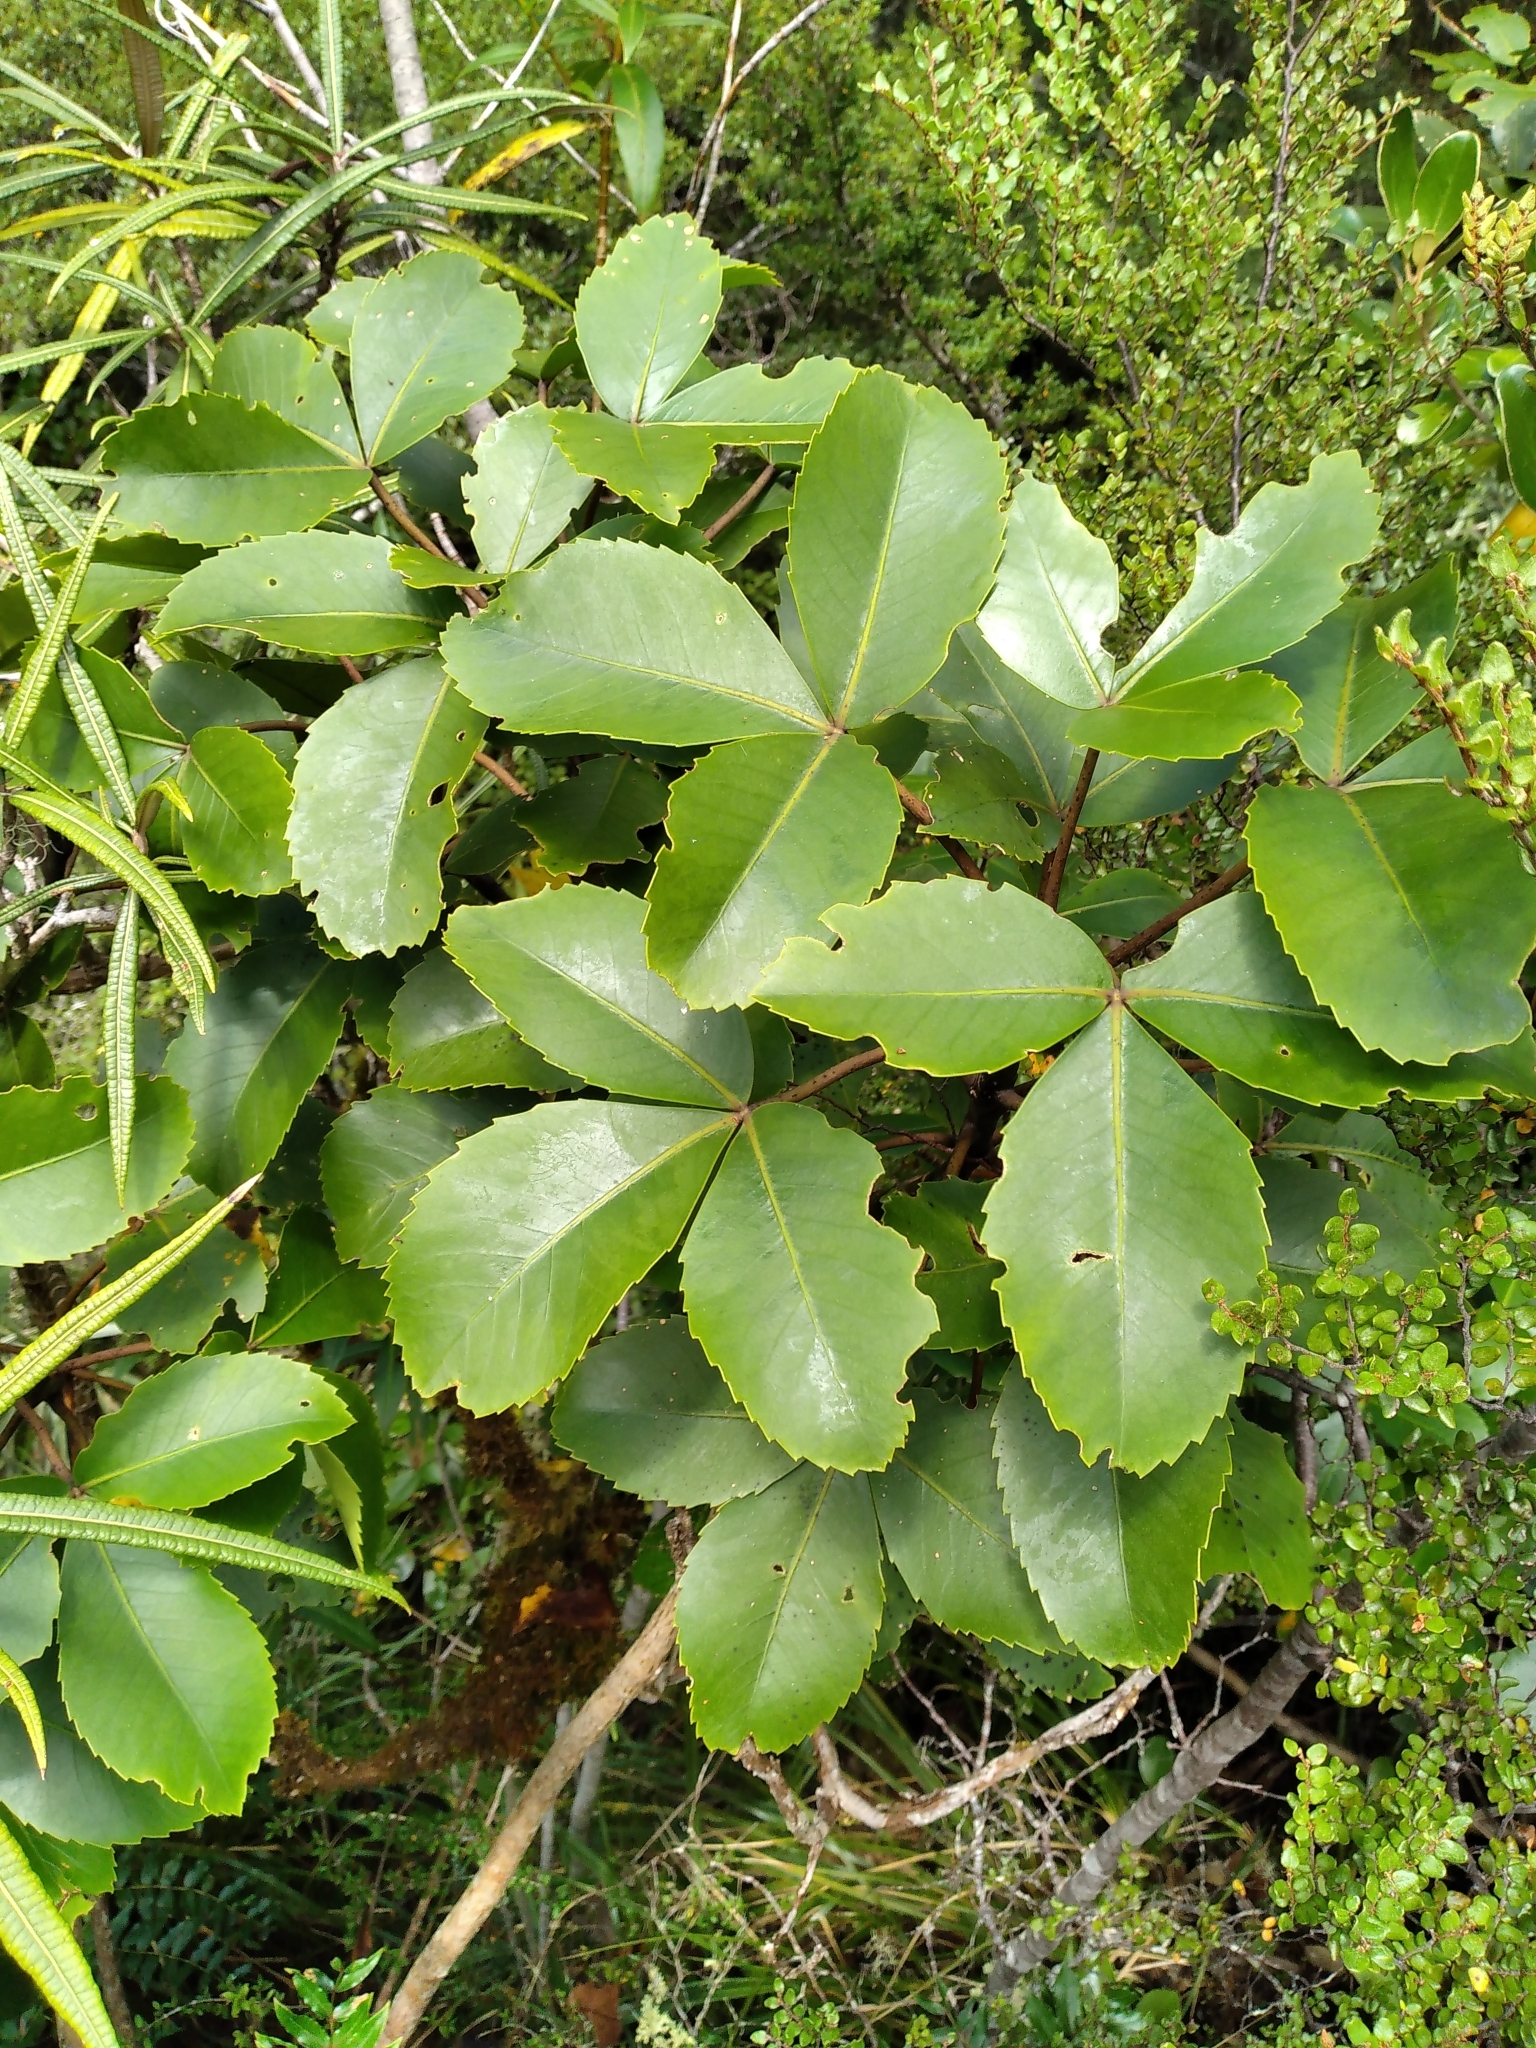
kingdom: Plantae
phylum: Tracheophyta
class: Magnoliopsida
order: Apiales
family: Araliaceae
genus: Neopanax
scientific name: Neopanax colensoi
